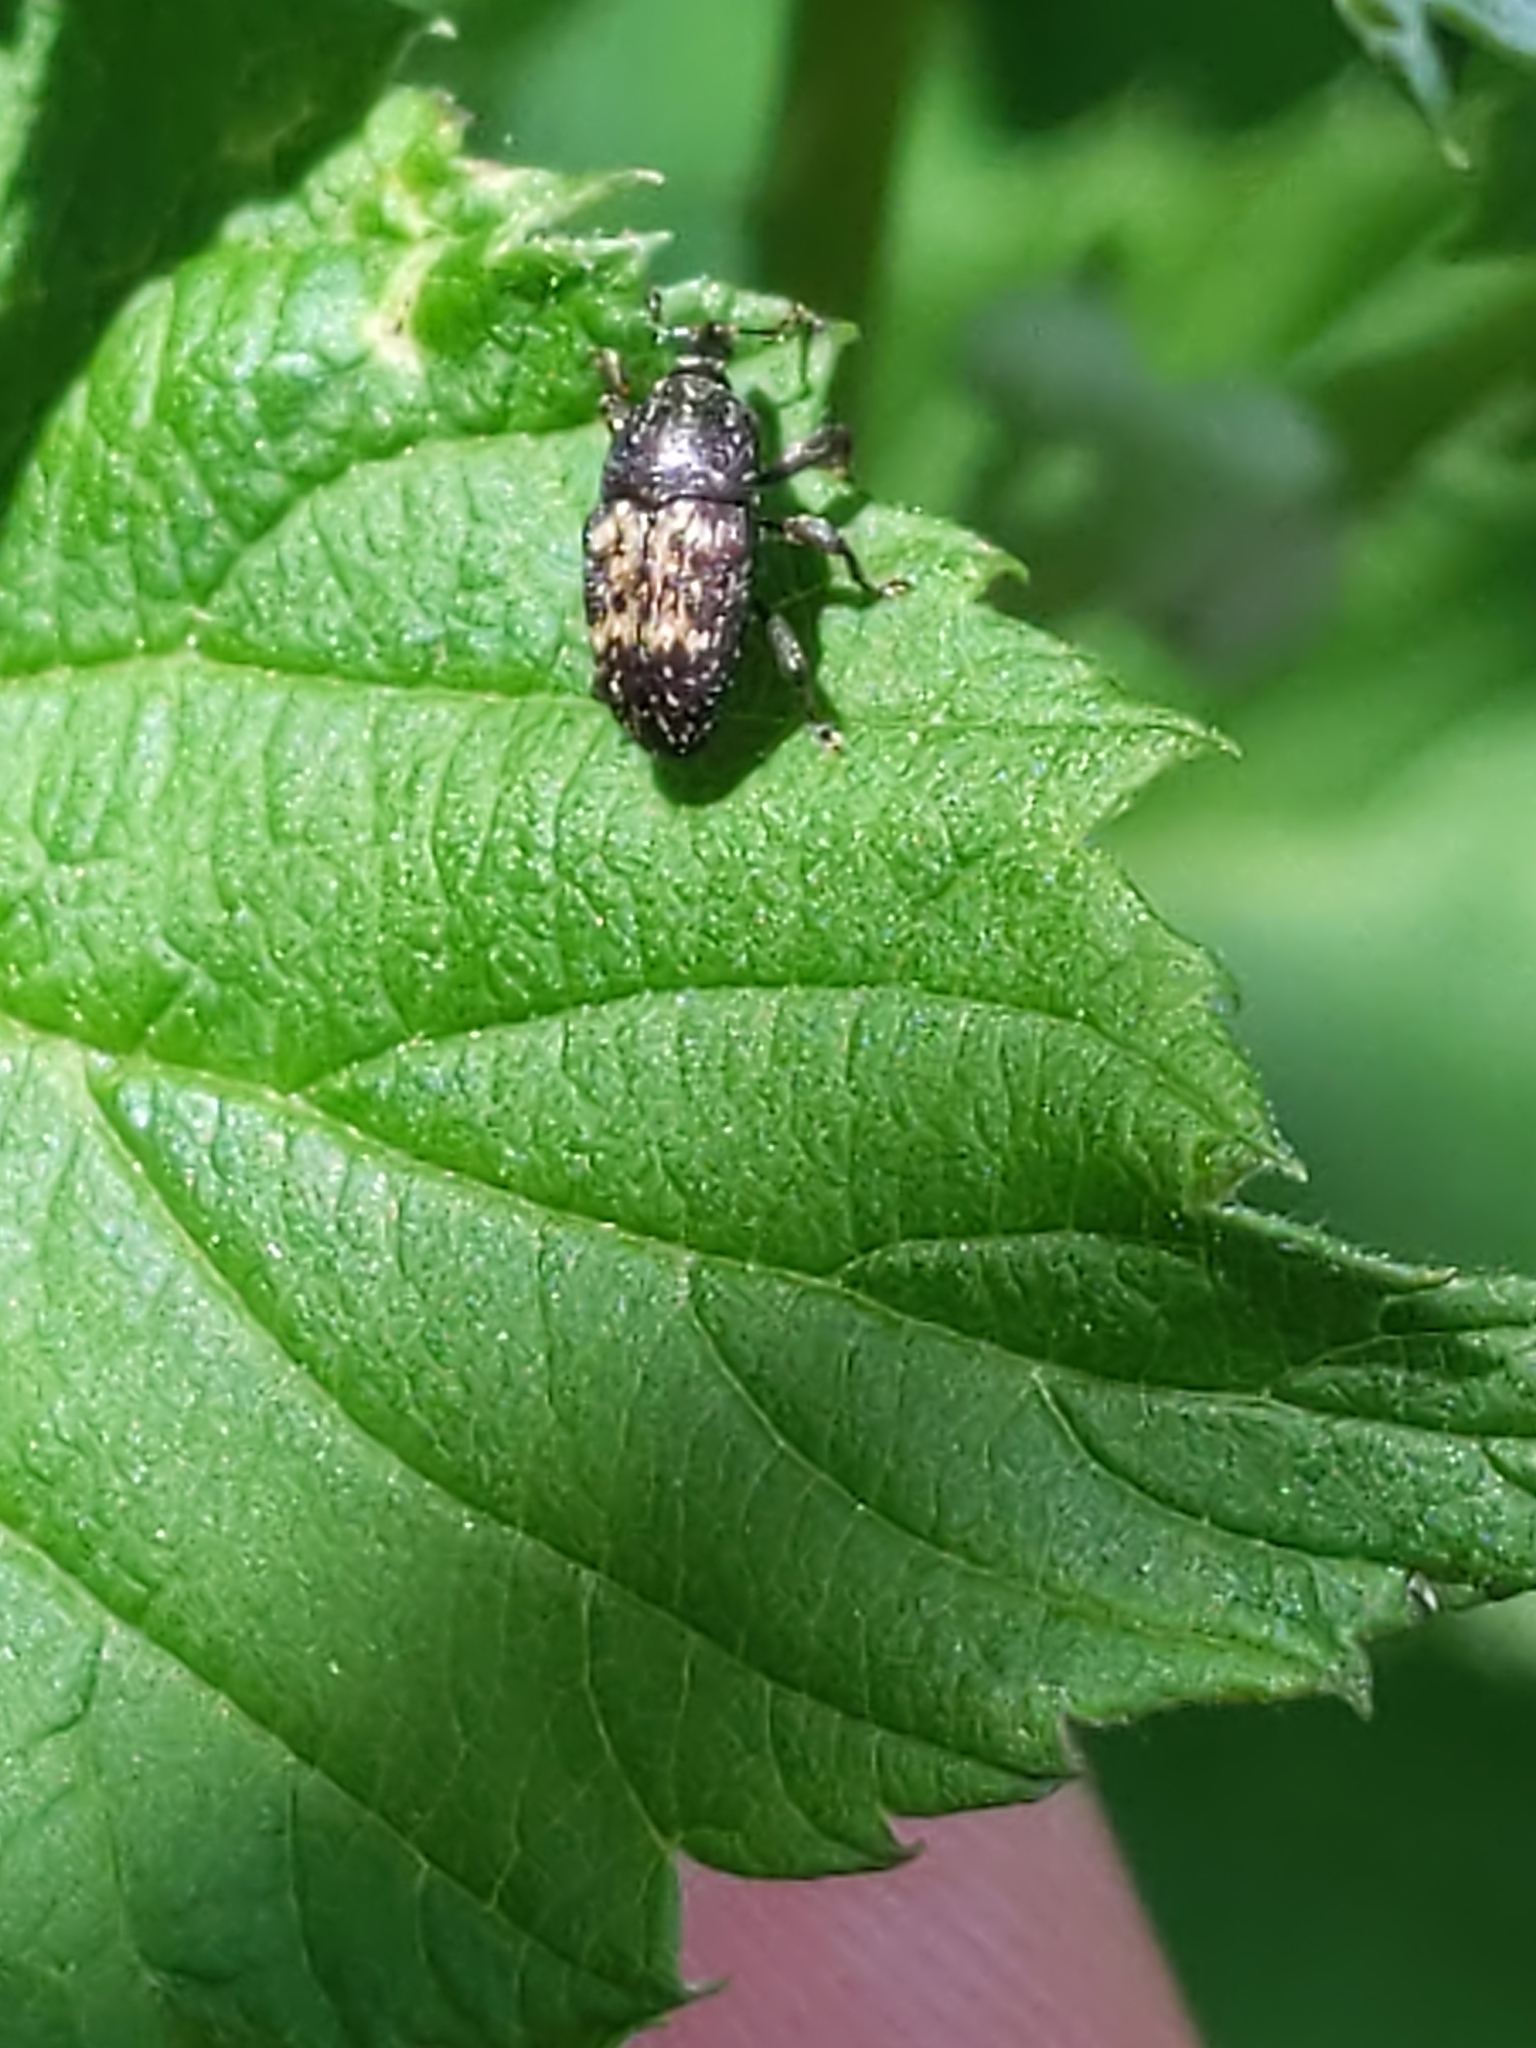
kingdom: Animalia
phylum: Arthropoda
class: Insecta
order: Coleoptera
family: Curculionidae
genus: Glyptobaris
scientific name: Glyptobaris lecontei
